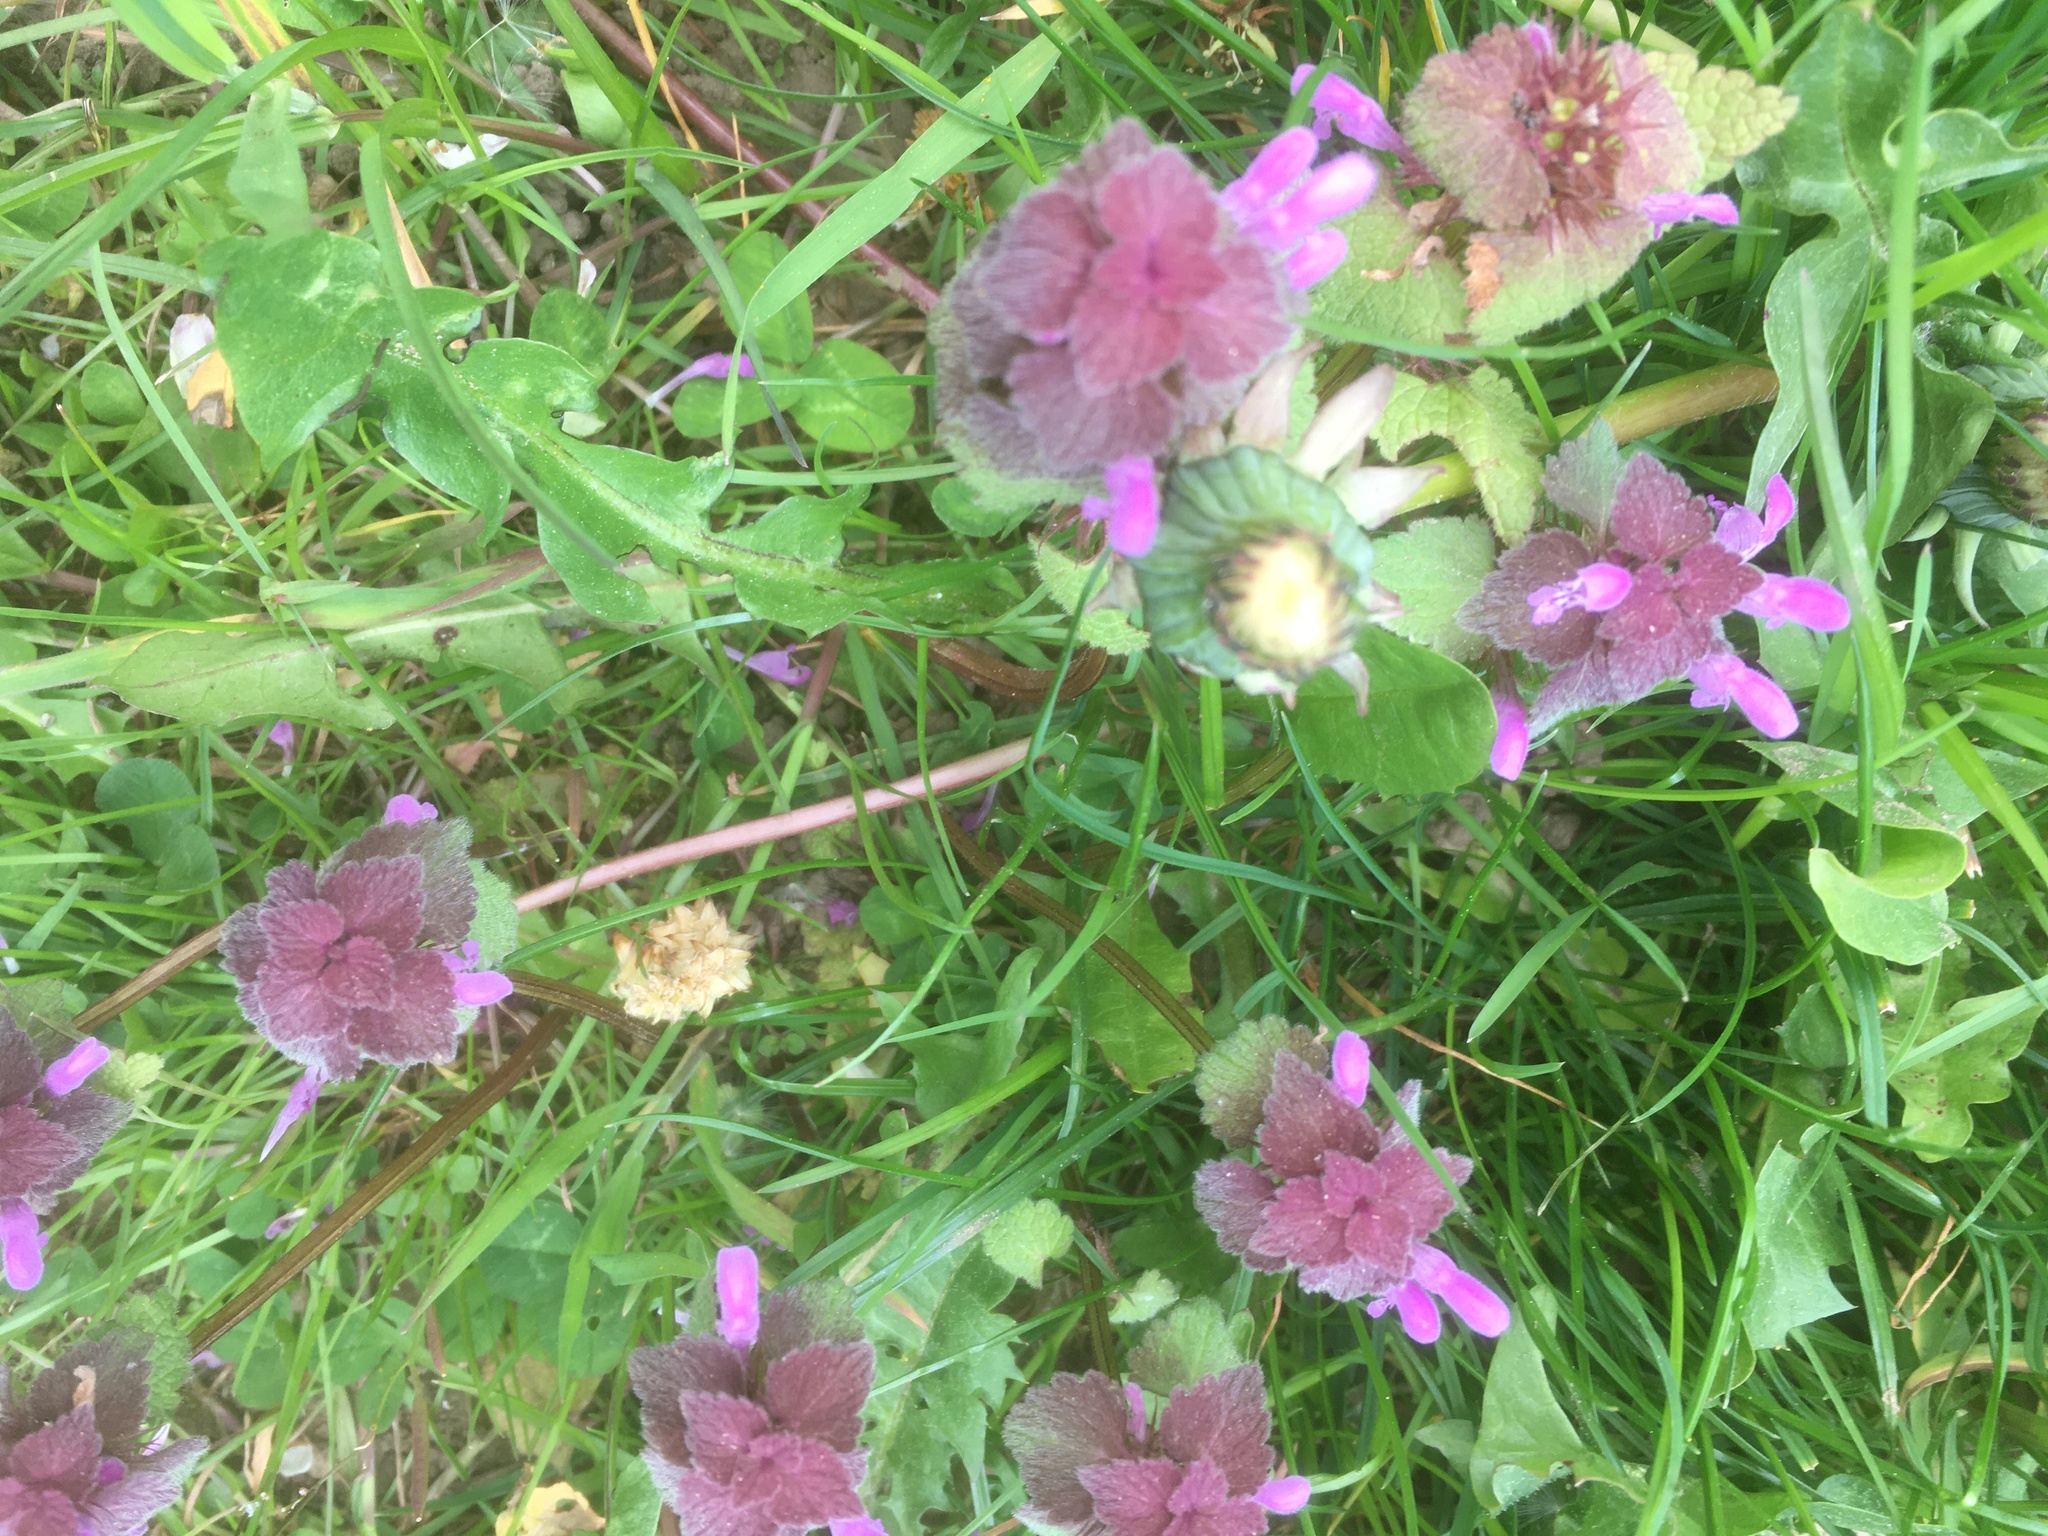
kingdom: Plantae
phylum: Tracheophyta
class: Magnoliopsida
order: Lamiales
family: Lamiaceae
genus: Lamium
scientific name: Lamium purpureum
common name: Red dead-nettle
